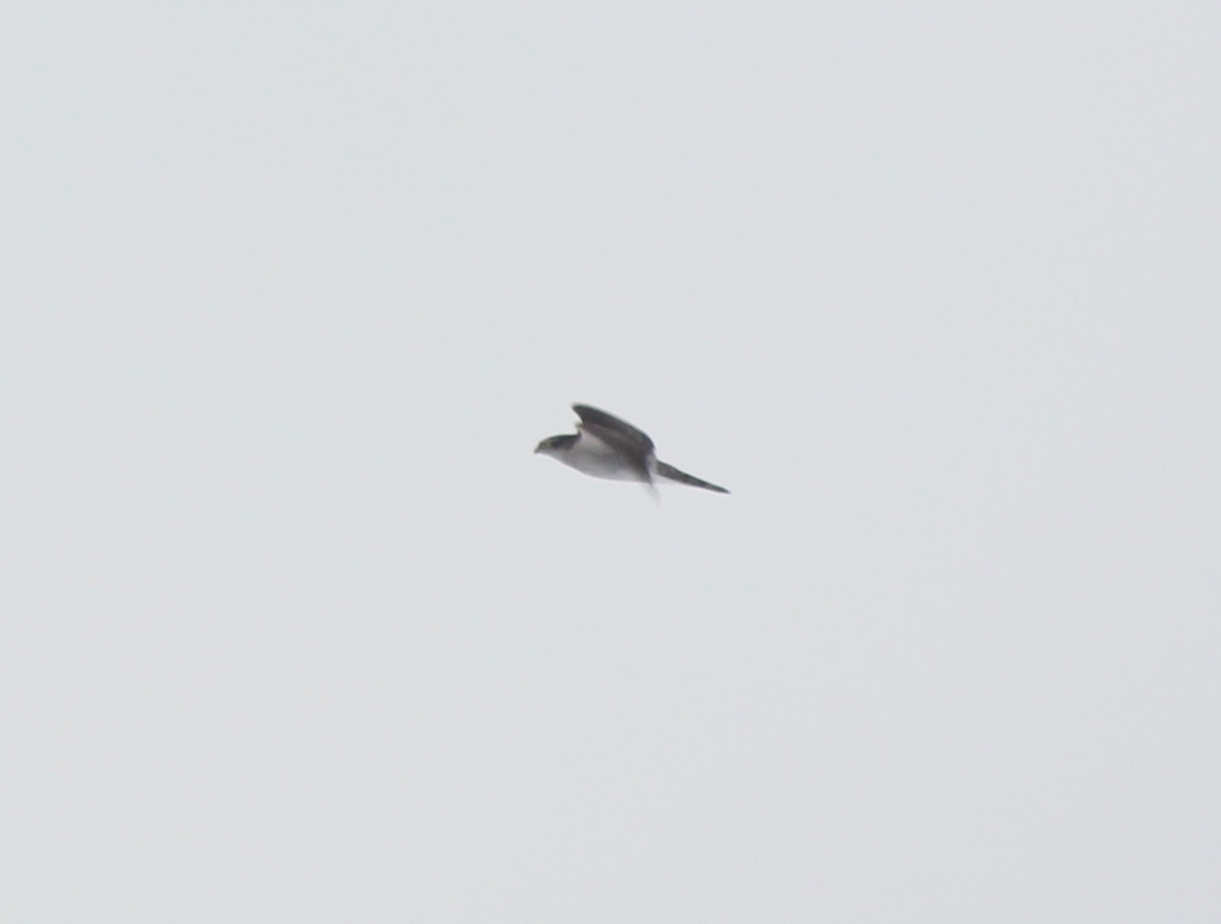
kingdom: Animalia
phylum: Chordata
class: Aves
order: Accipitriformes
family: Accipitridae
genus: Accipiter
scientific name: Accipiter gentilis
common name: Northern goshawk
